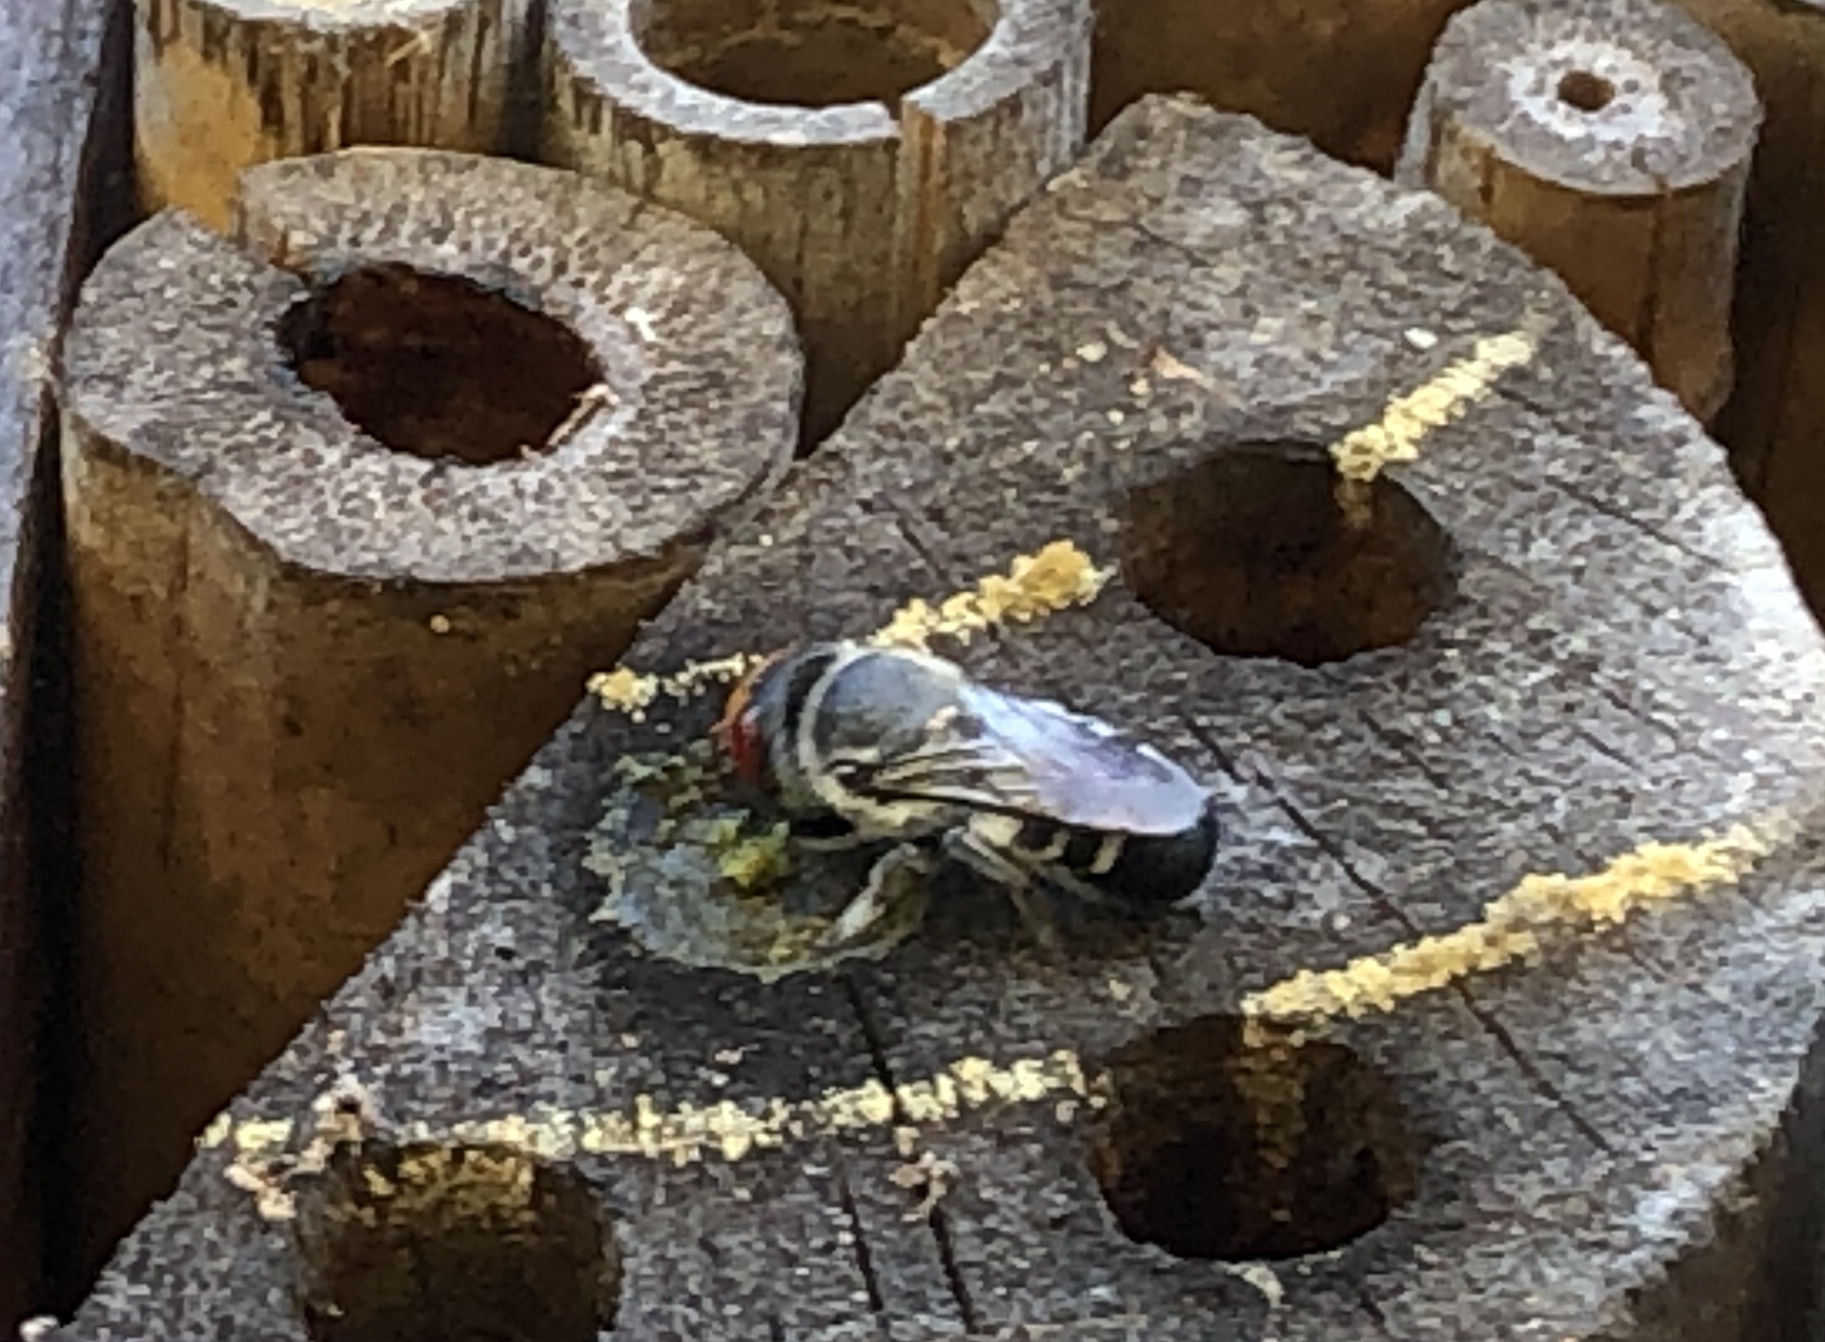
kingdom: Animalia
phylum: Arthropoda
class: Insecta
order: Hymenoptera
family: Megachilidae
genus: Megachile
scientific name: Megachile aurifrons
